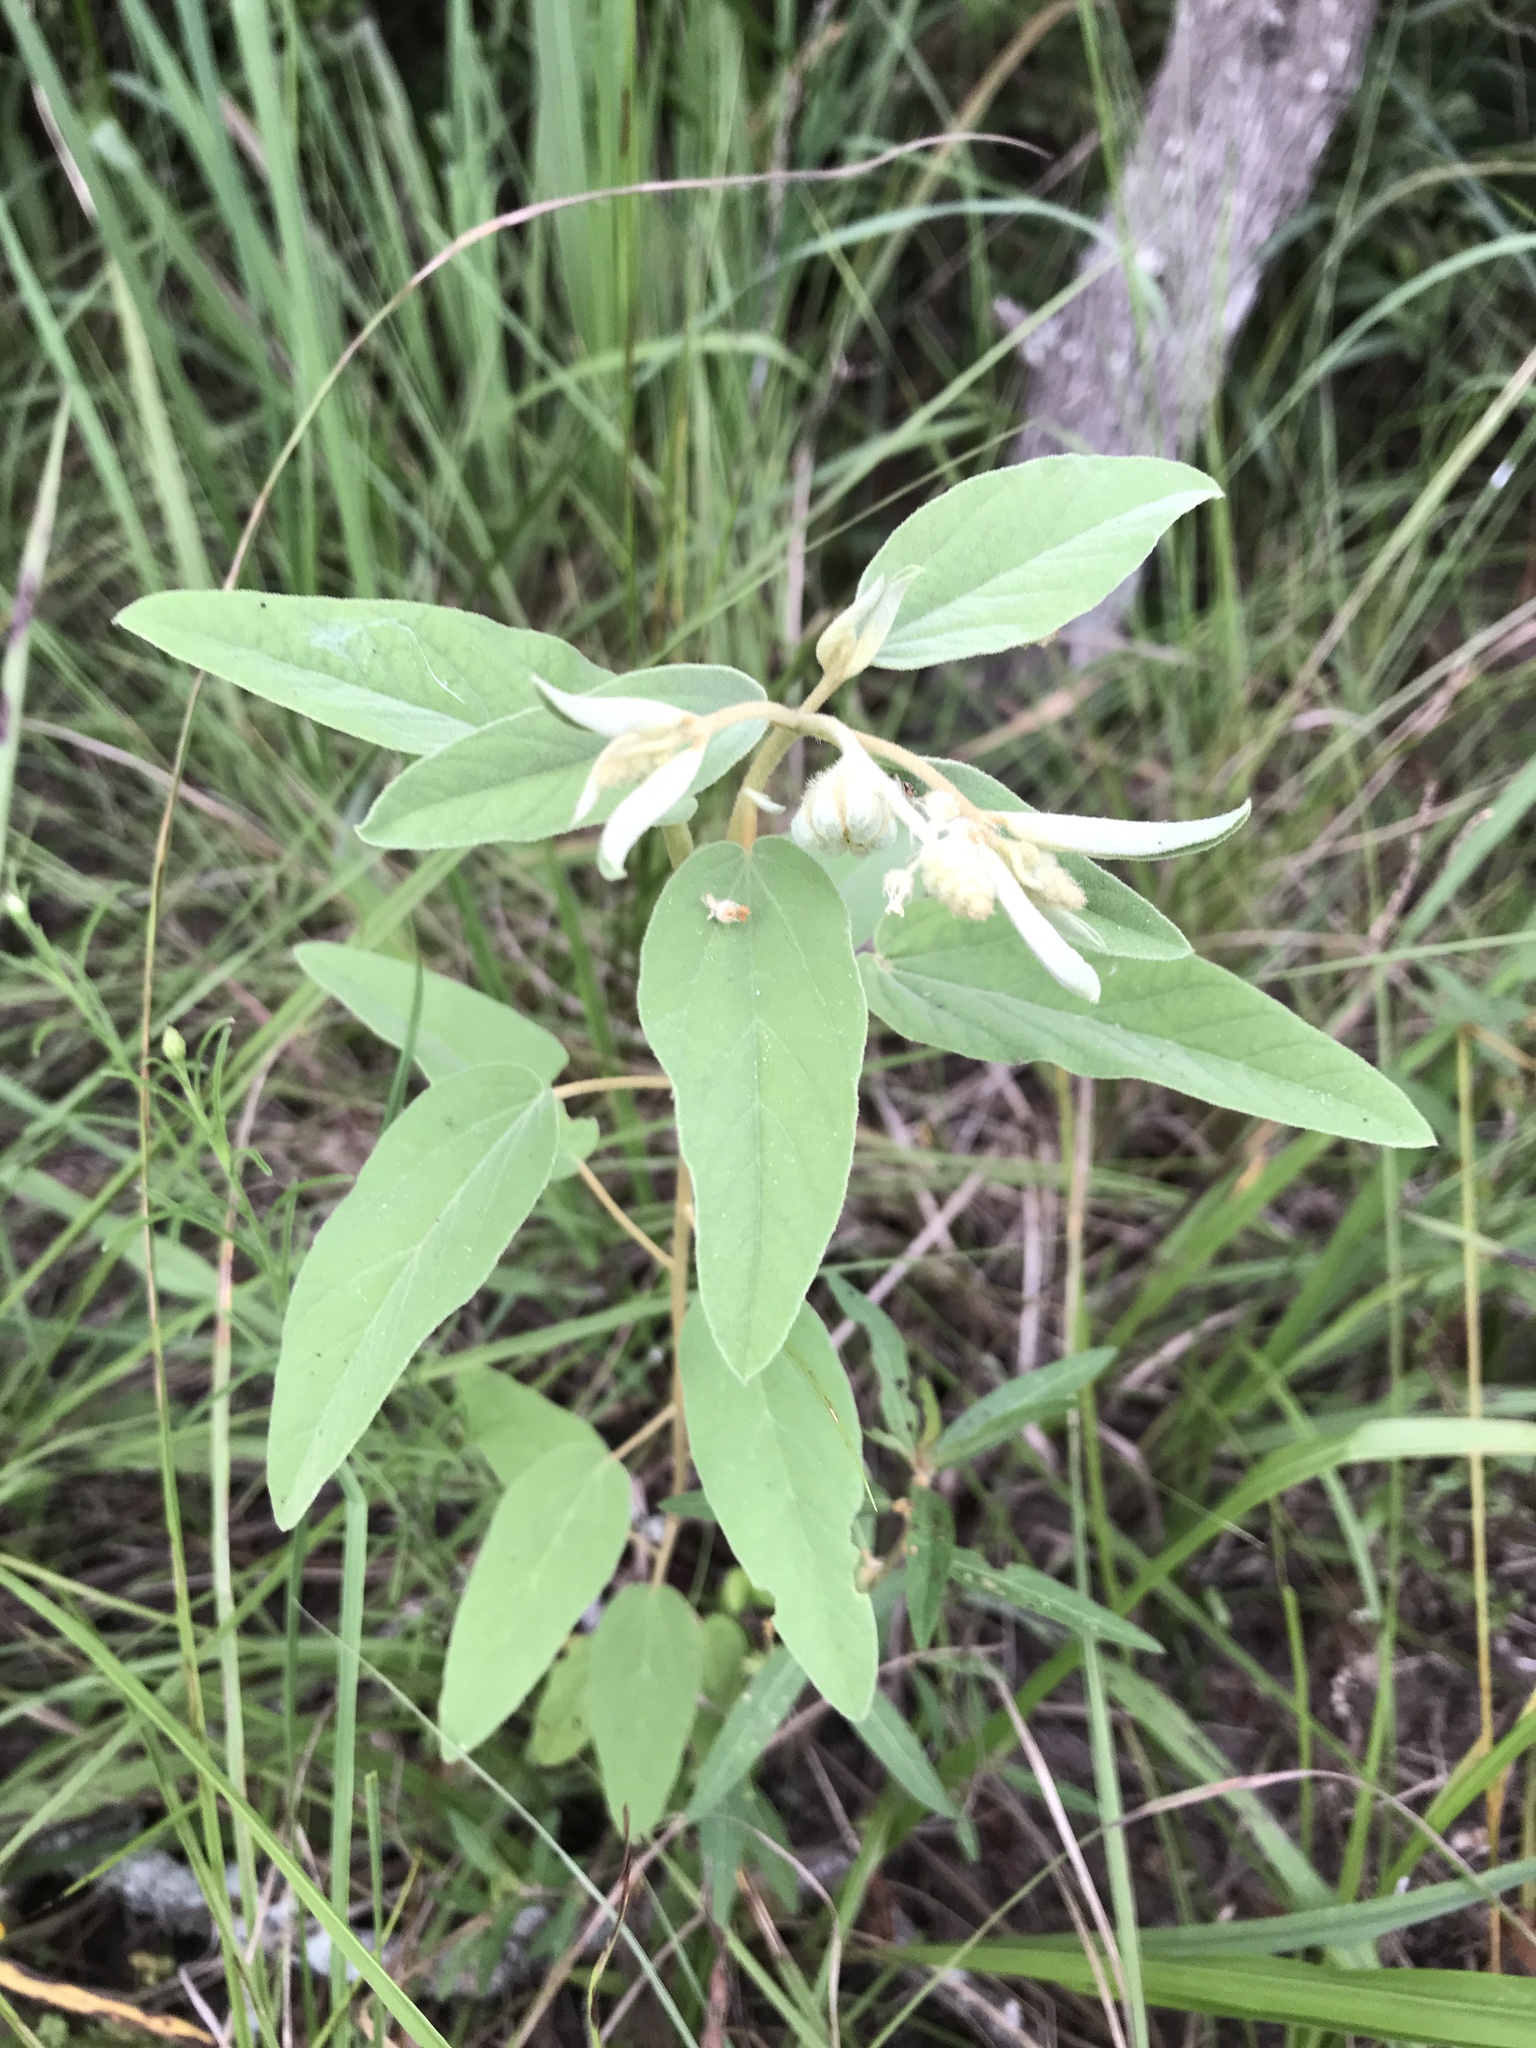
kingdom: Plantae
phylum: Tracheophyta
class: Magnoliopsida
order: Malpighiales
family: Euphorbiaceae
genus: Croton
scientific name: Croton lindheimeri
